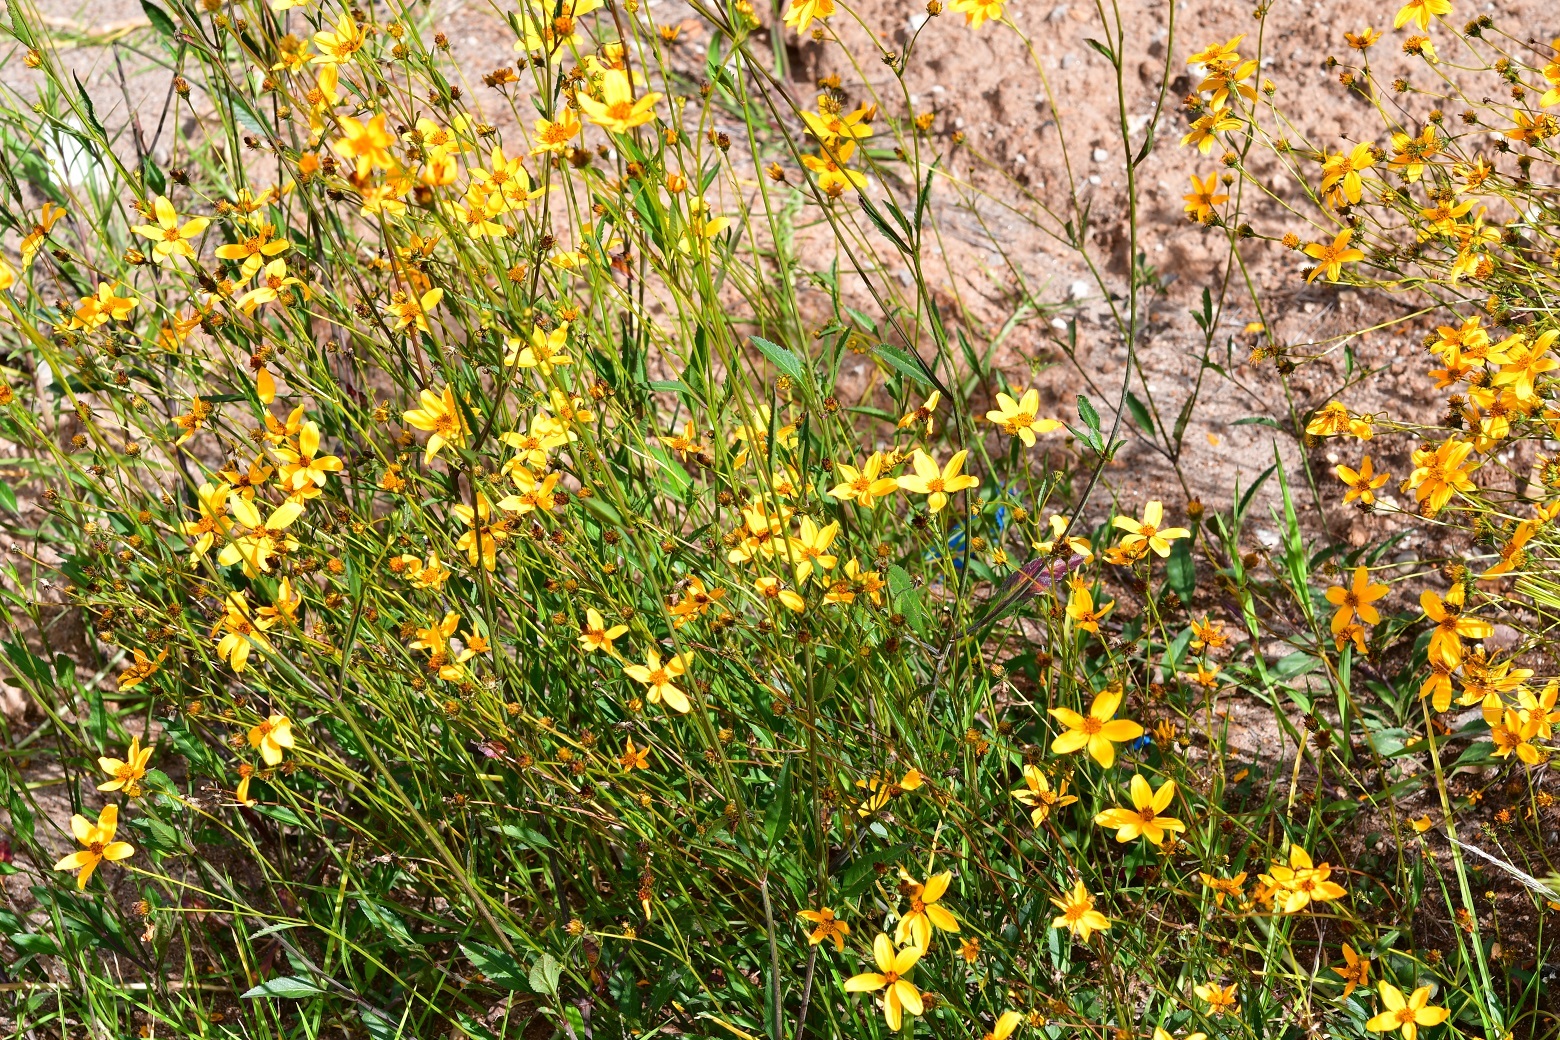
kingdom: Plantae
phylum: Tracheophyta
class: Magnoliopsida
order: Asterales
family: Asteraceae
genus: Bidens
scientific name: Bidens aurea
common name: Arizona beggar-ticks
